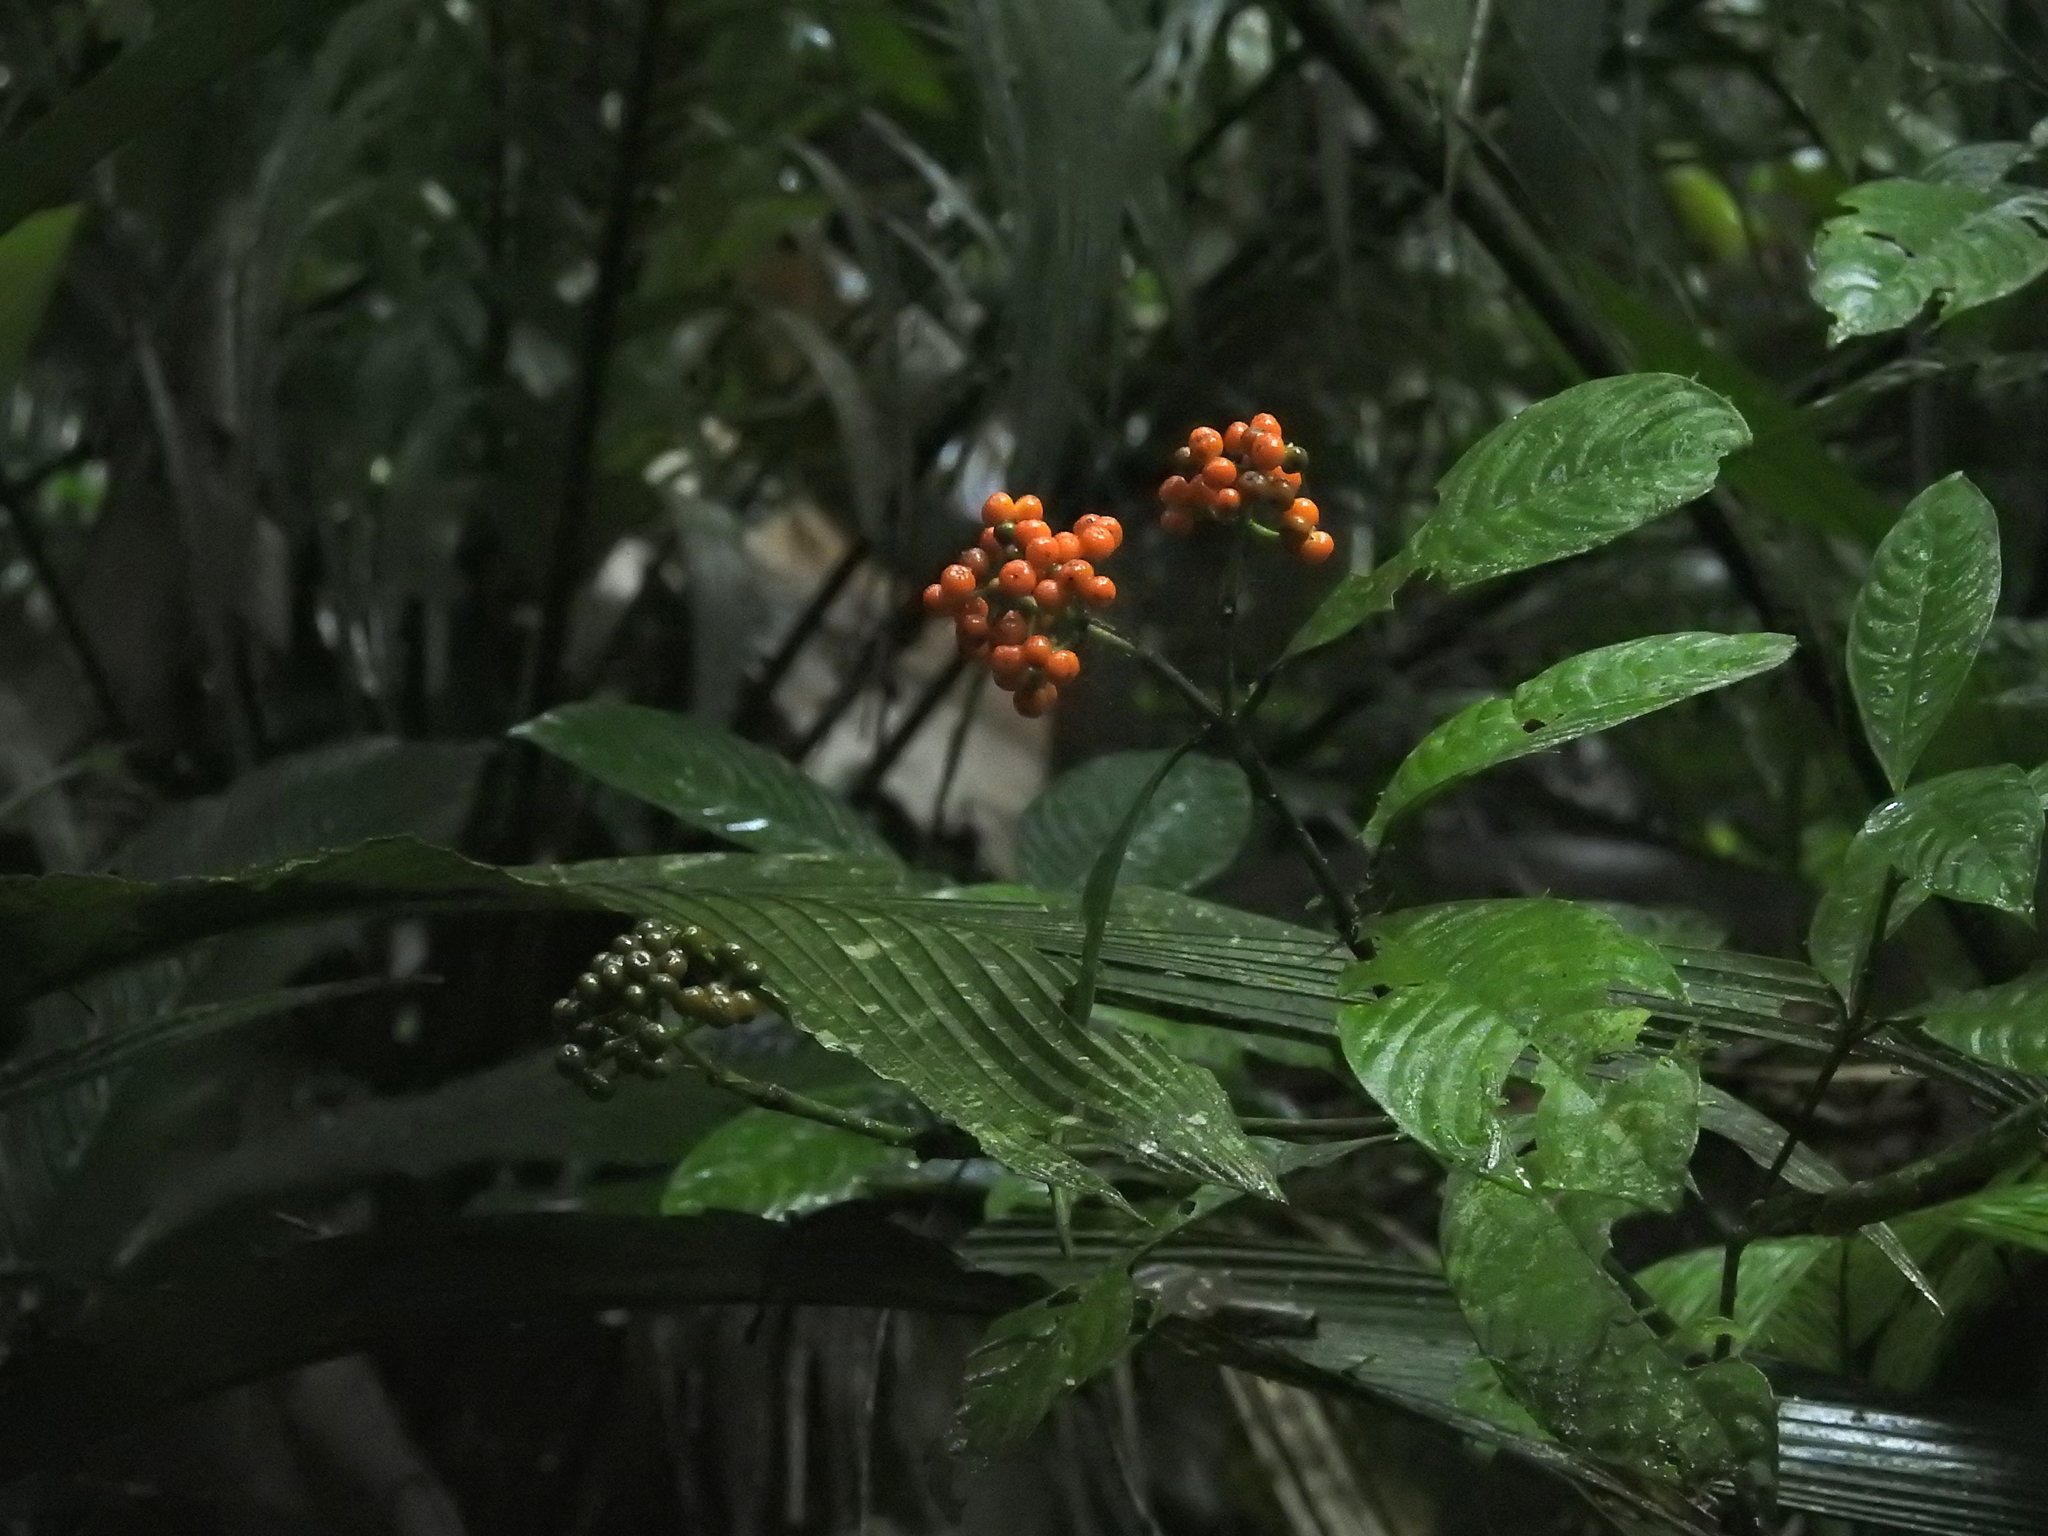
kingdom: Plantae
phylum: Tracheophyta
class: Magnoliopsida
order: Gentianales
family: Rubiaceae
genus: Palicourea
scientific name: Palicourea racemosa
